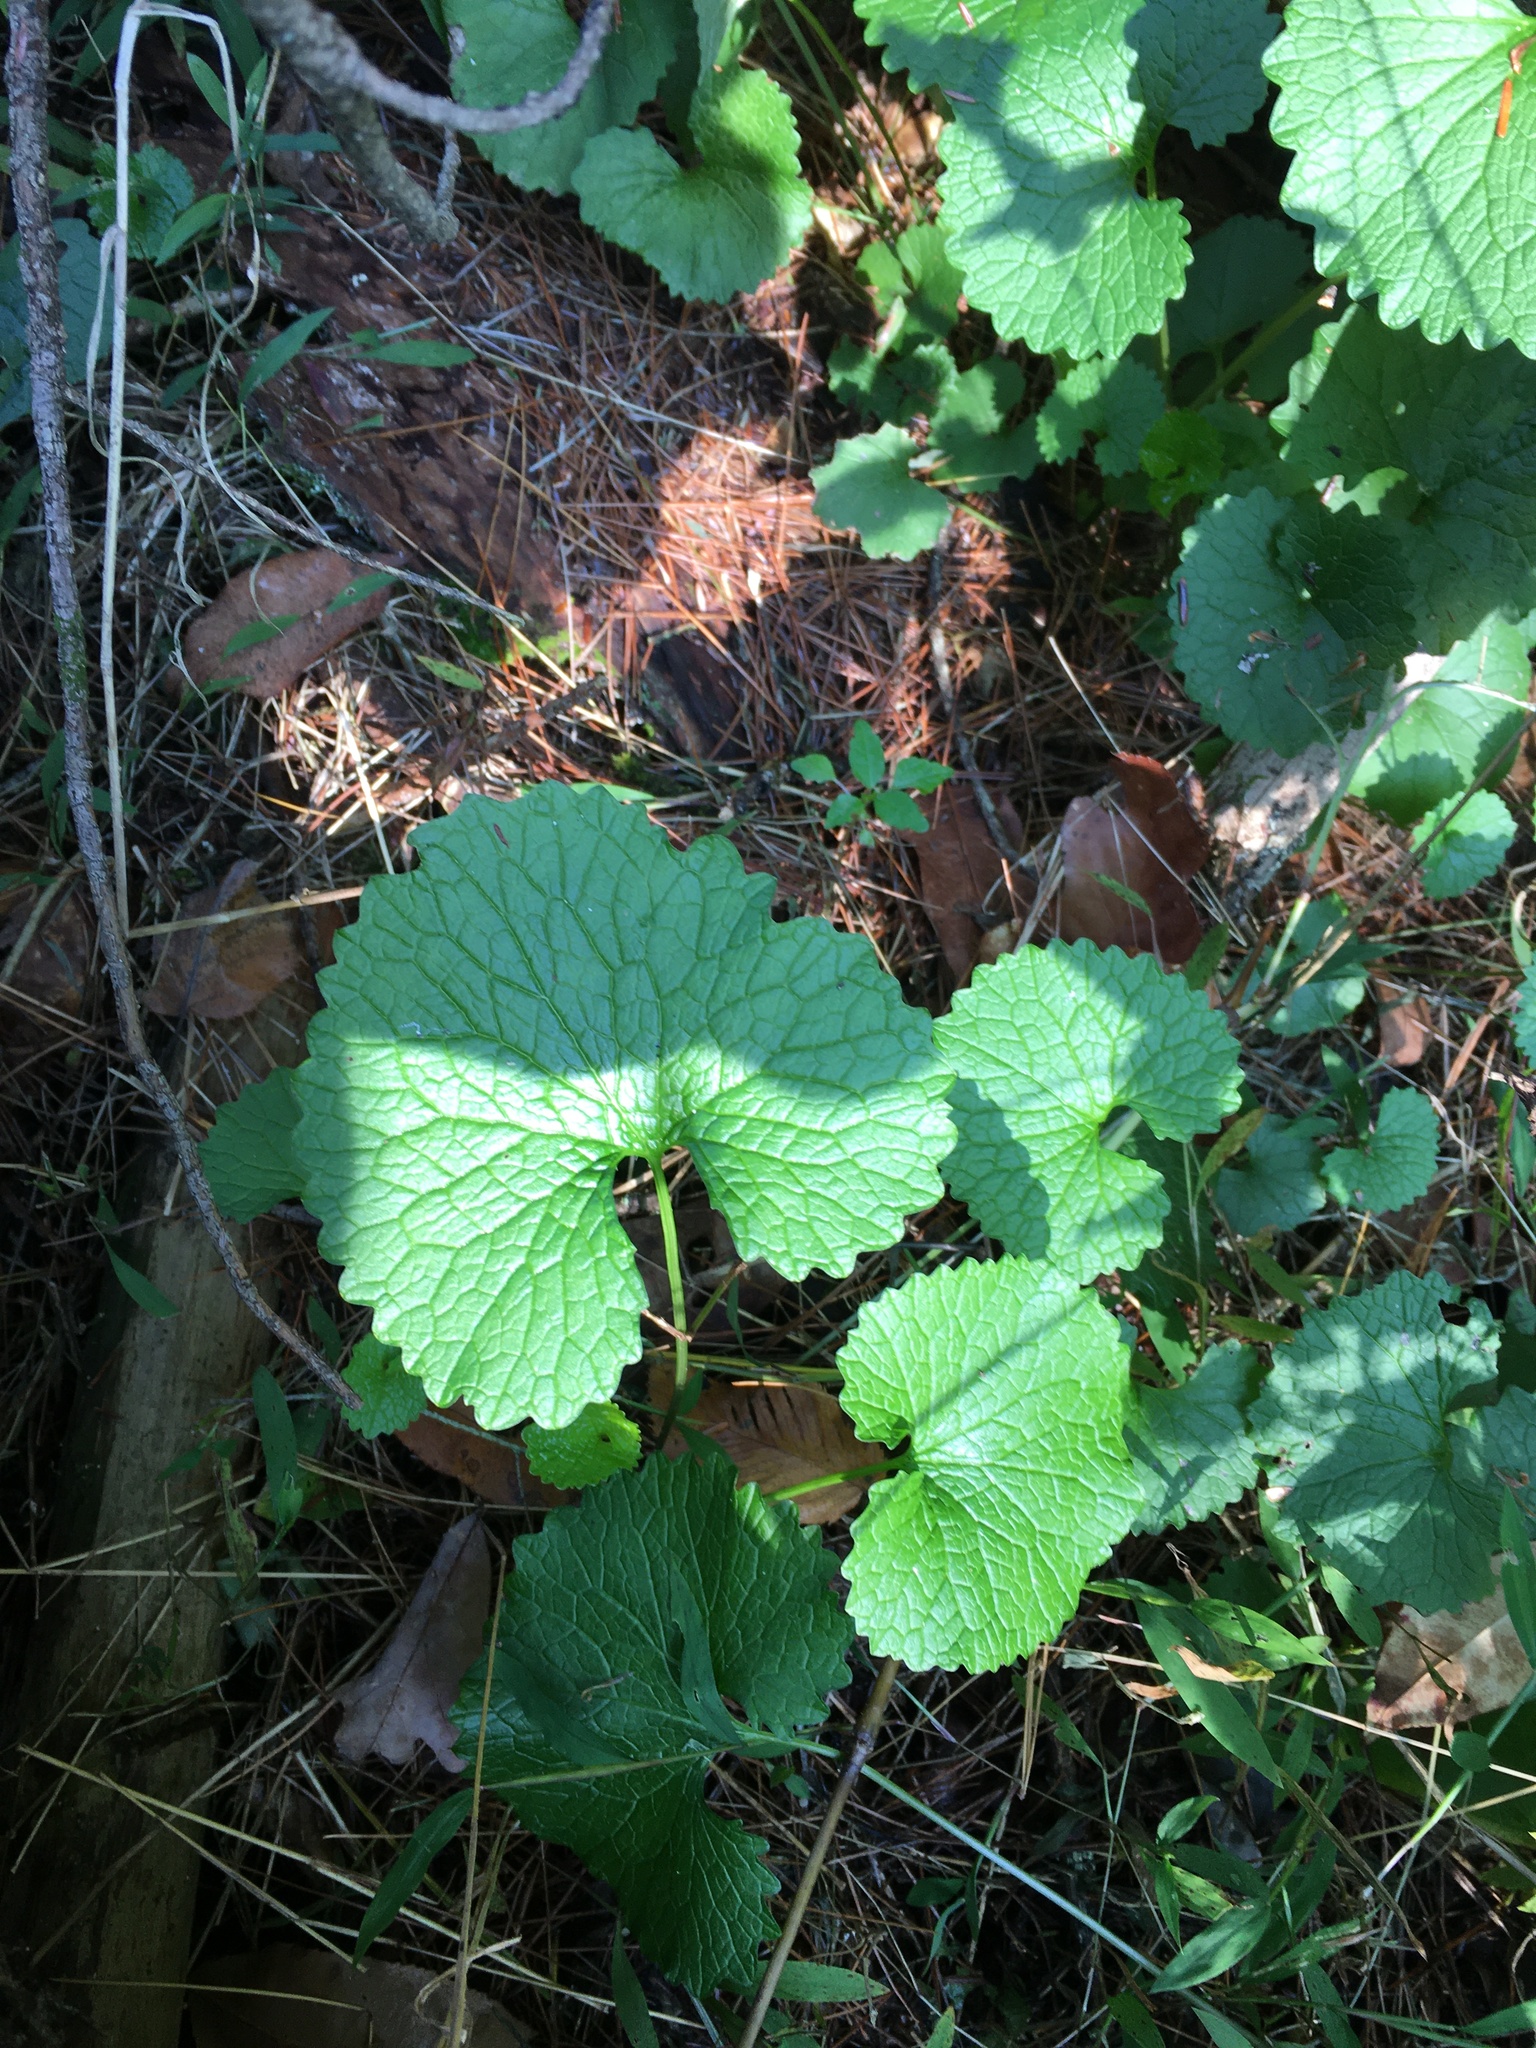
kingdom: Plantae
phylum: Tracheophyta
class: Magnoliopsida
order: Brassicales
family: Brassicaceae
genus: Alliaria
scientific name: Alliaria petiolata
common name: Garlic mustard
